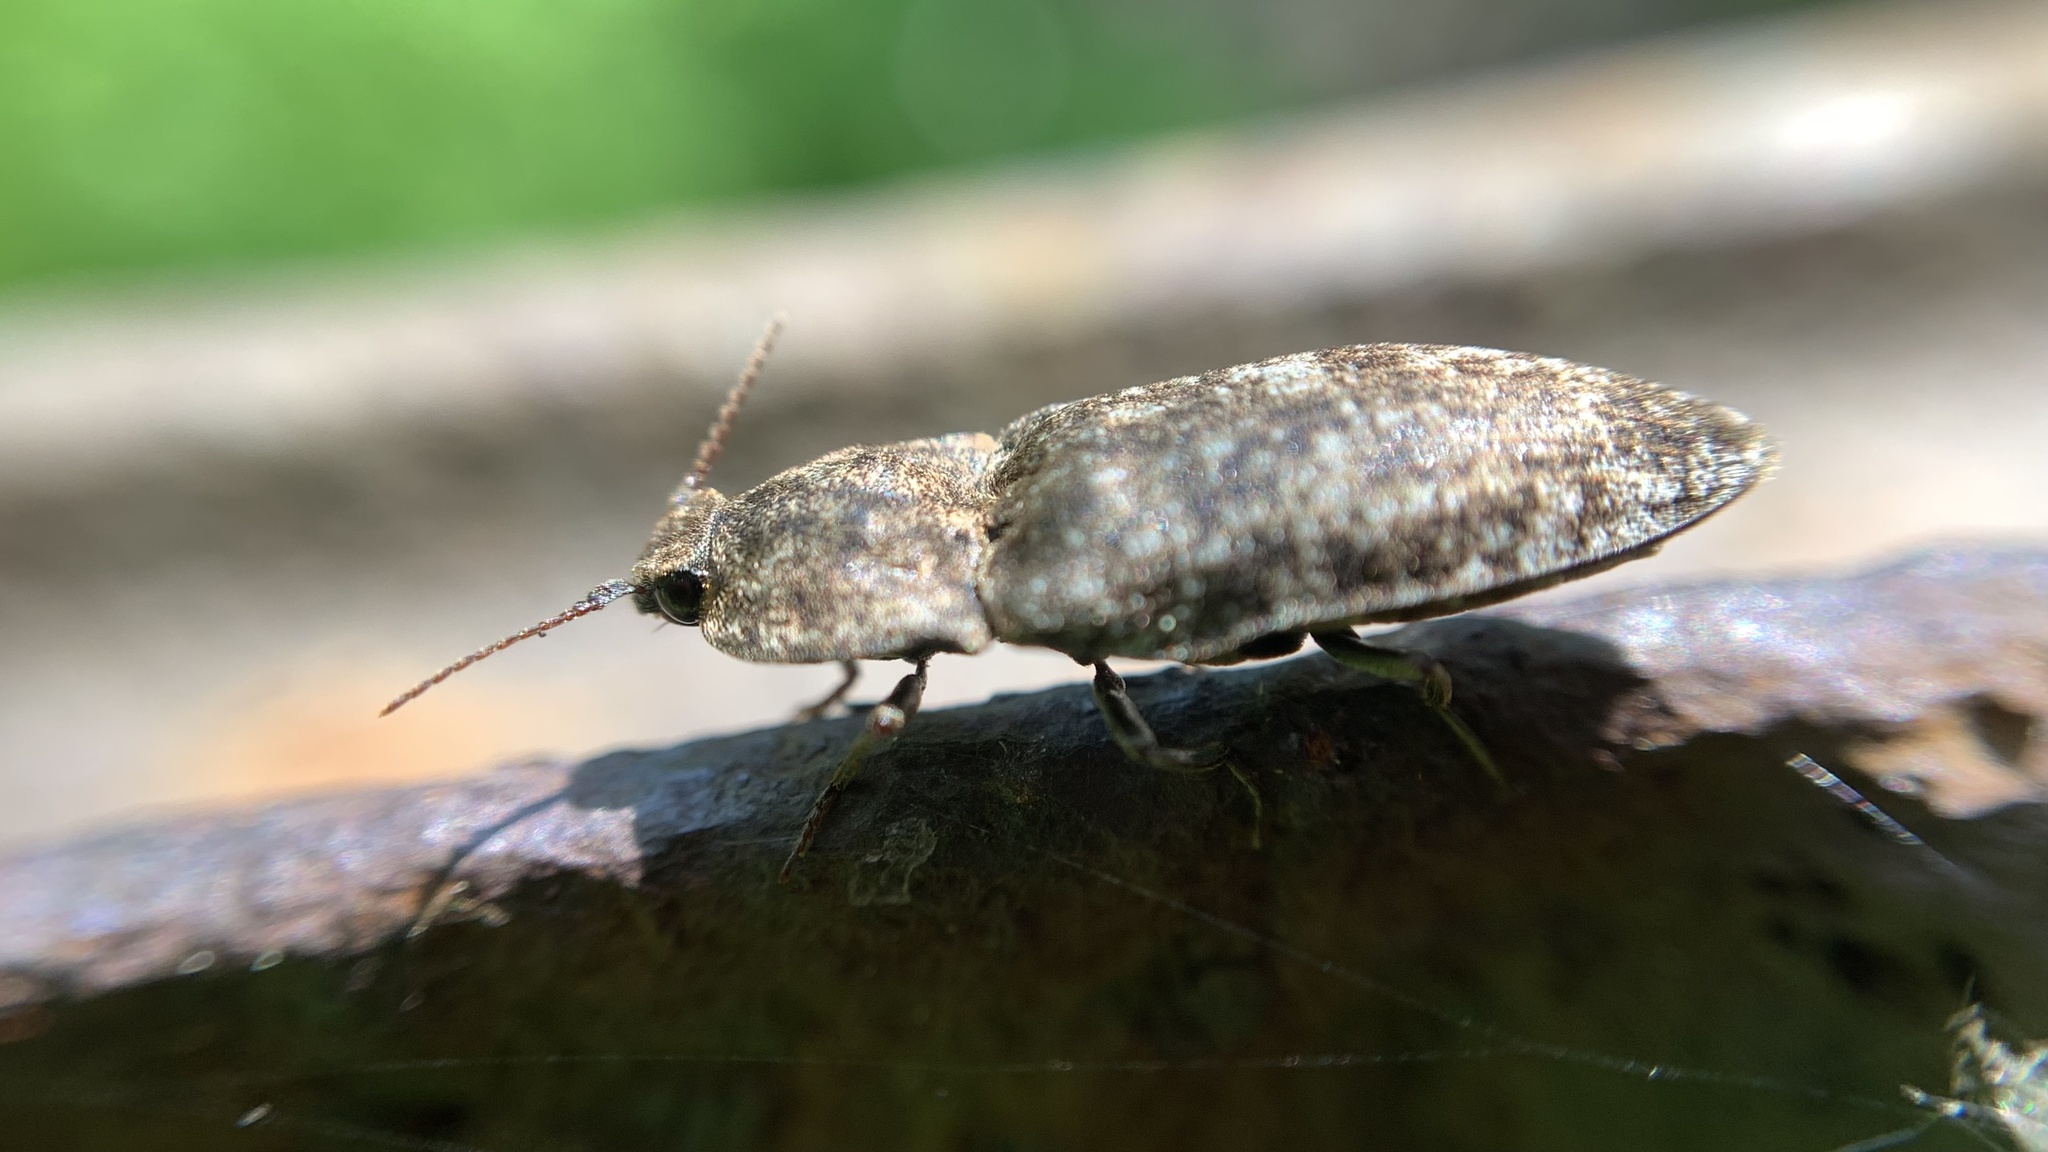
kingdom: Animalia
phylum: Arthropoda
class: Insecta
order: Coleoptera
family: Elateridae
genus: Agrypnus
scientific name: Agrypnus murinus
